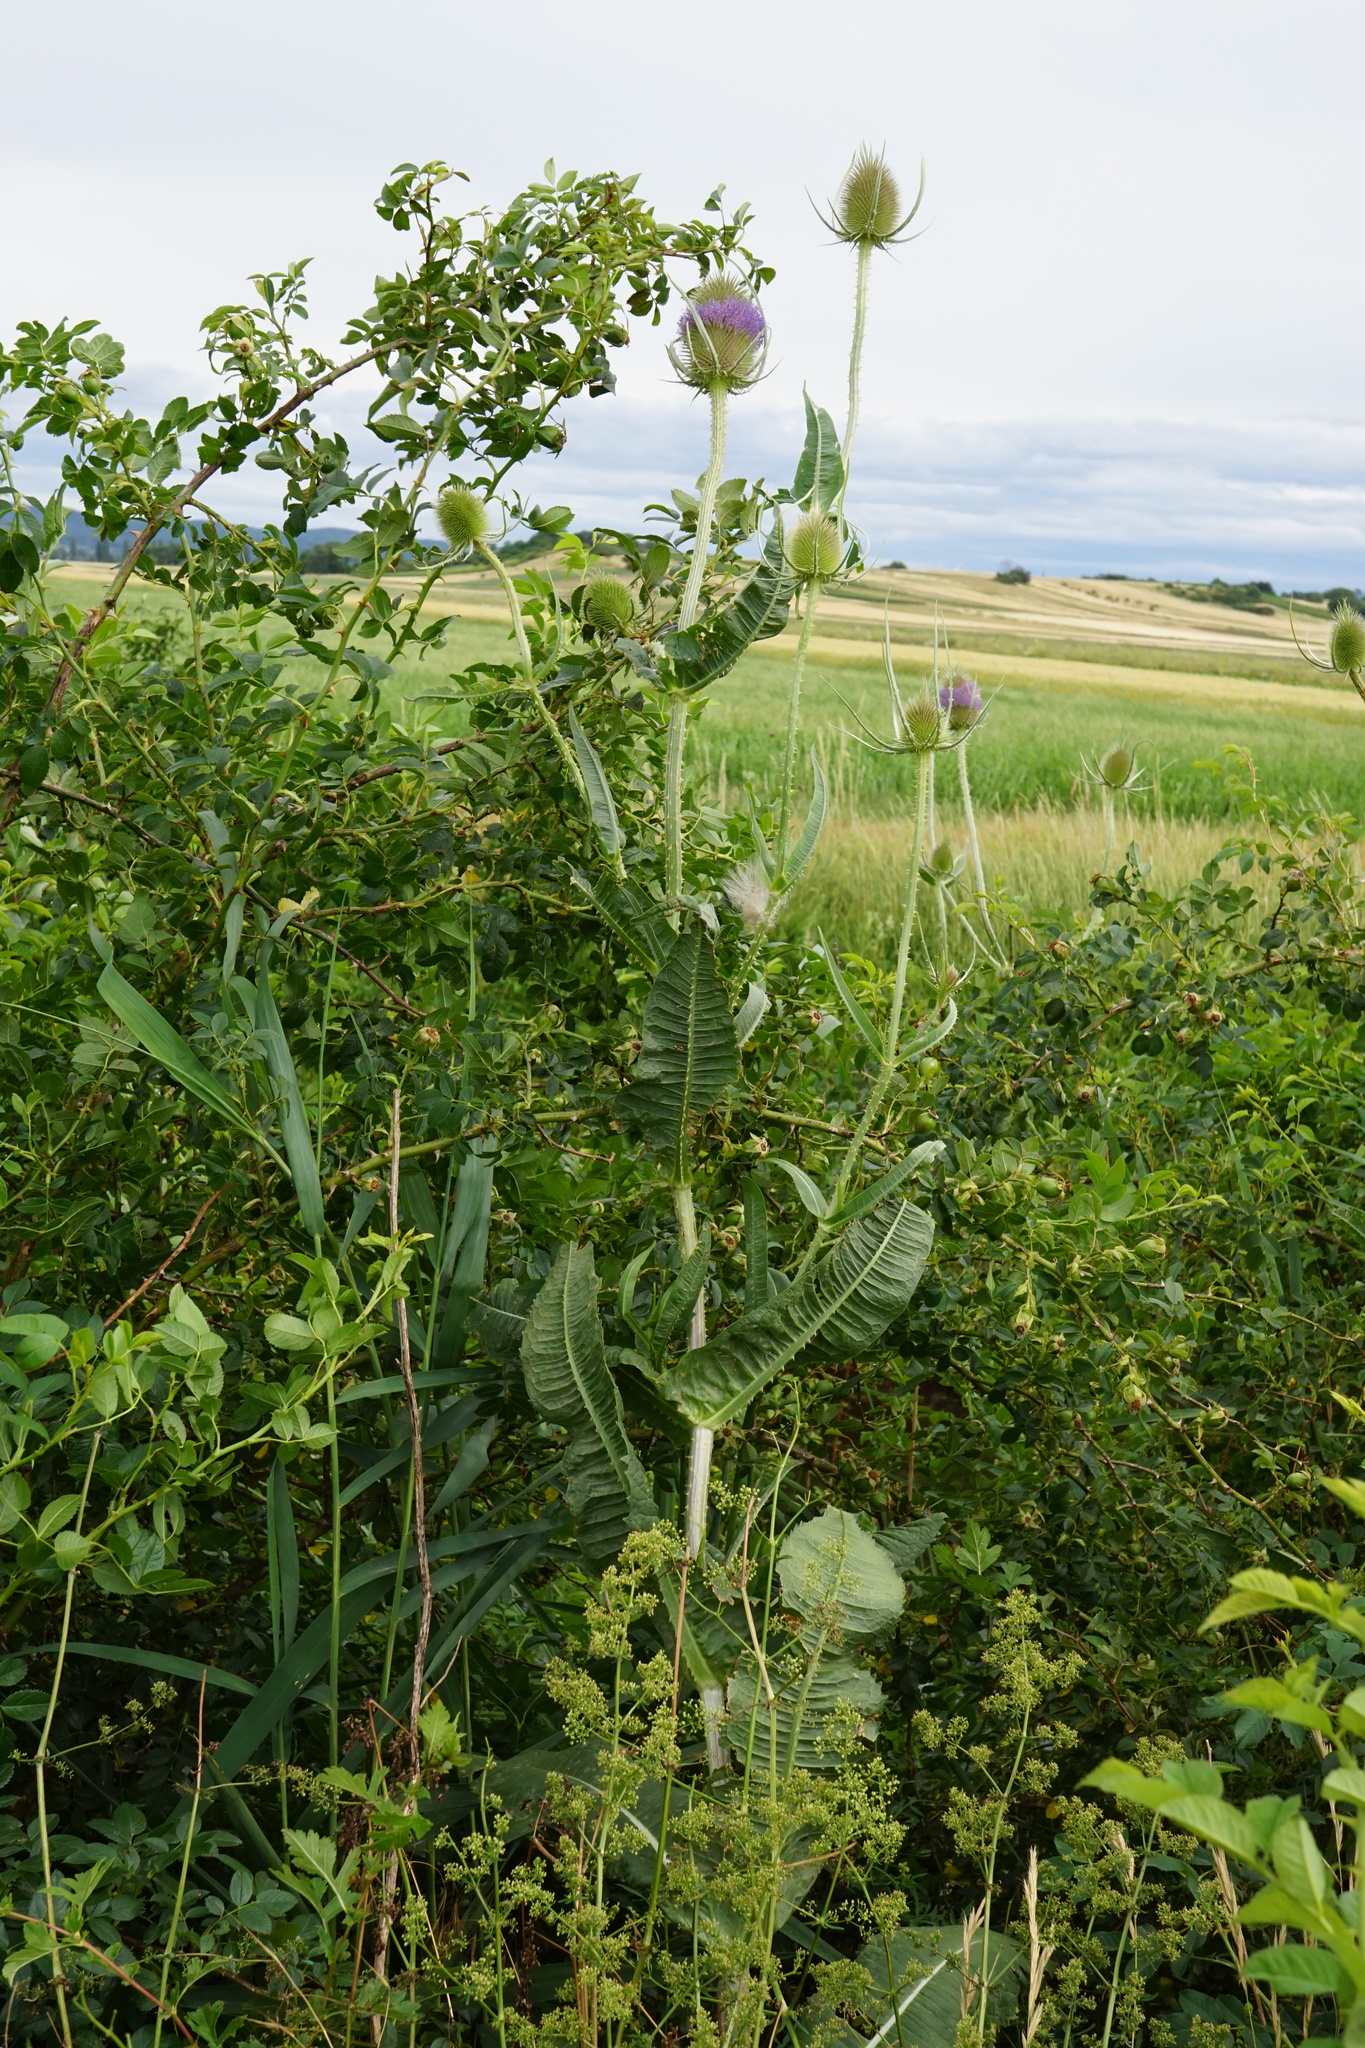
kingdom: Plantae
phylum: Tracheophyta
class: Magnoliopsida
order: Dipsacales
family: Caprifoliaceae
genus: Dipsacus
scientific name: Dipsacus fullonum
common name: Teasel
